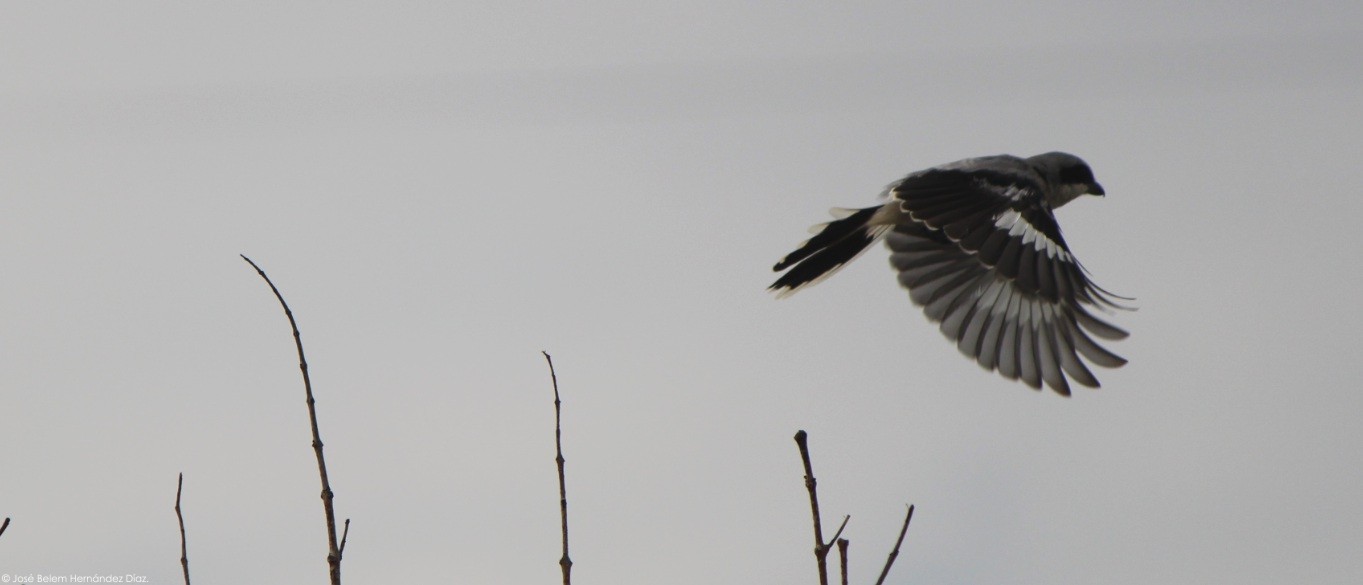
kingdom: Animalia
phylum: Chordata
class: Aves
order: Passeriformes
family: Laniidae
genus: Lanius
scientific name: Lanius ludovicianus
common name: Loggerhead shrike
